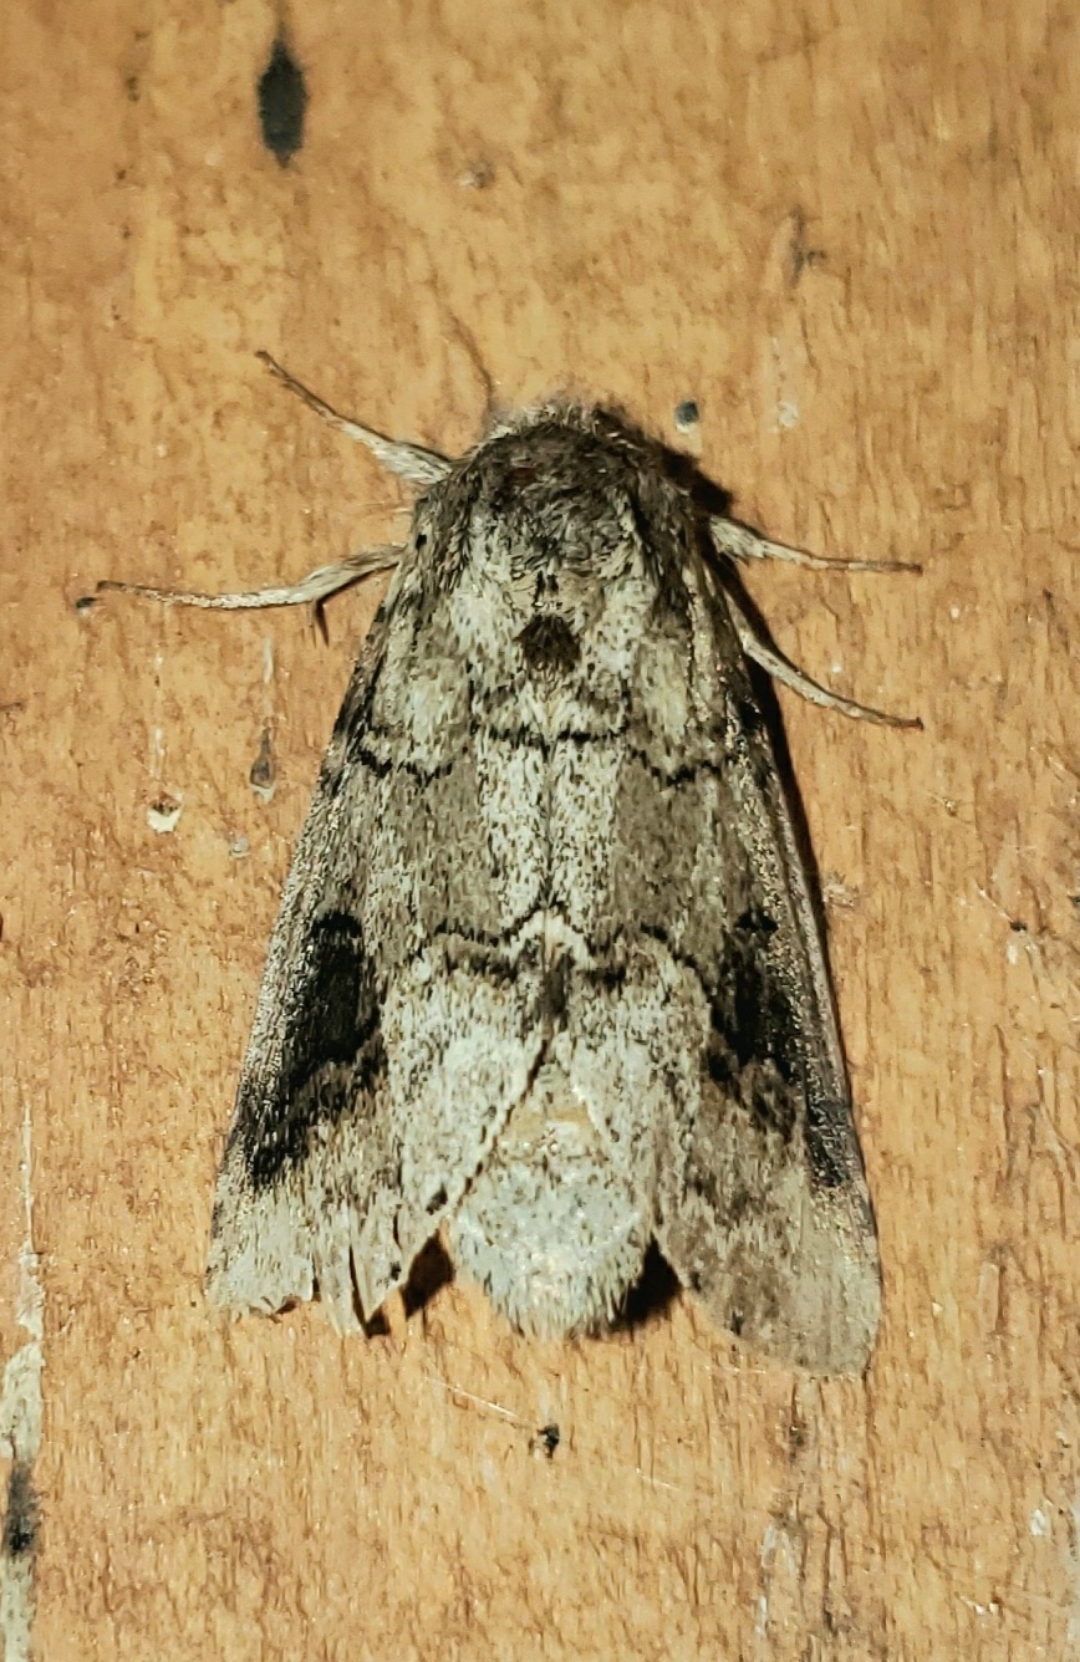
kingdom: Animalia
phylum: Arthropoda
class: Insecta
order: Lepidoptera
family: Notodontidae
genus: Lochmaeus
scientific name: Lochmaeus bilineata
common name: Double-lined prominent
